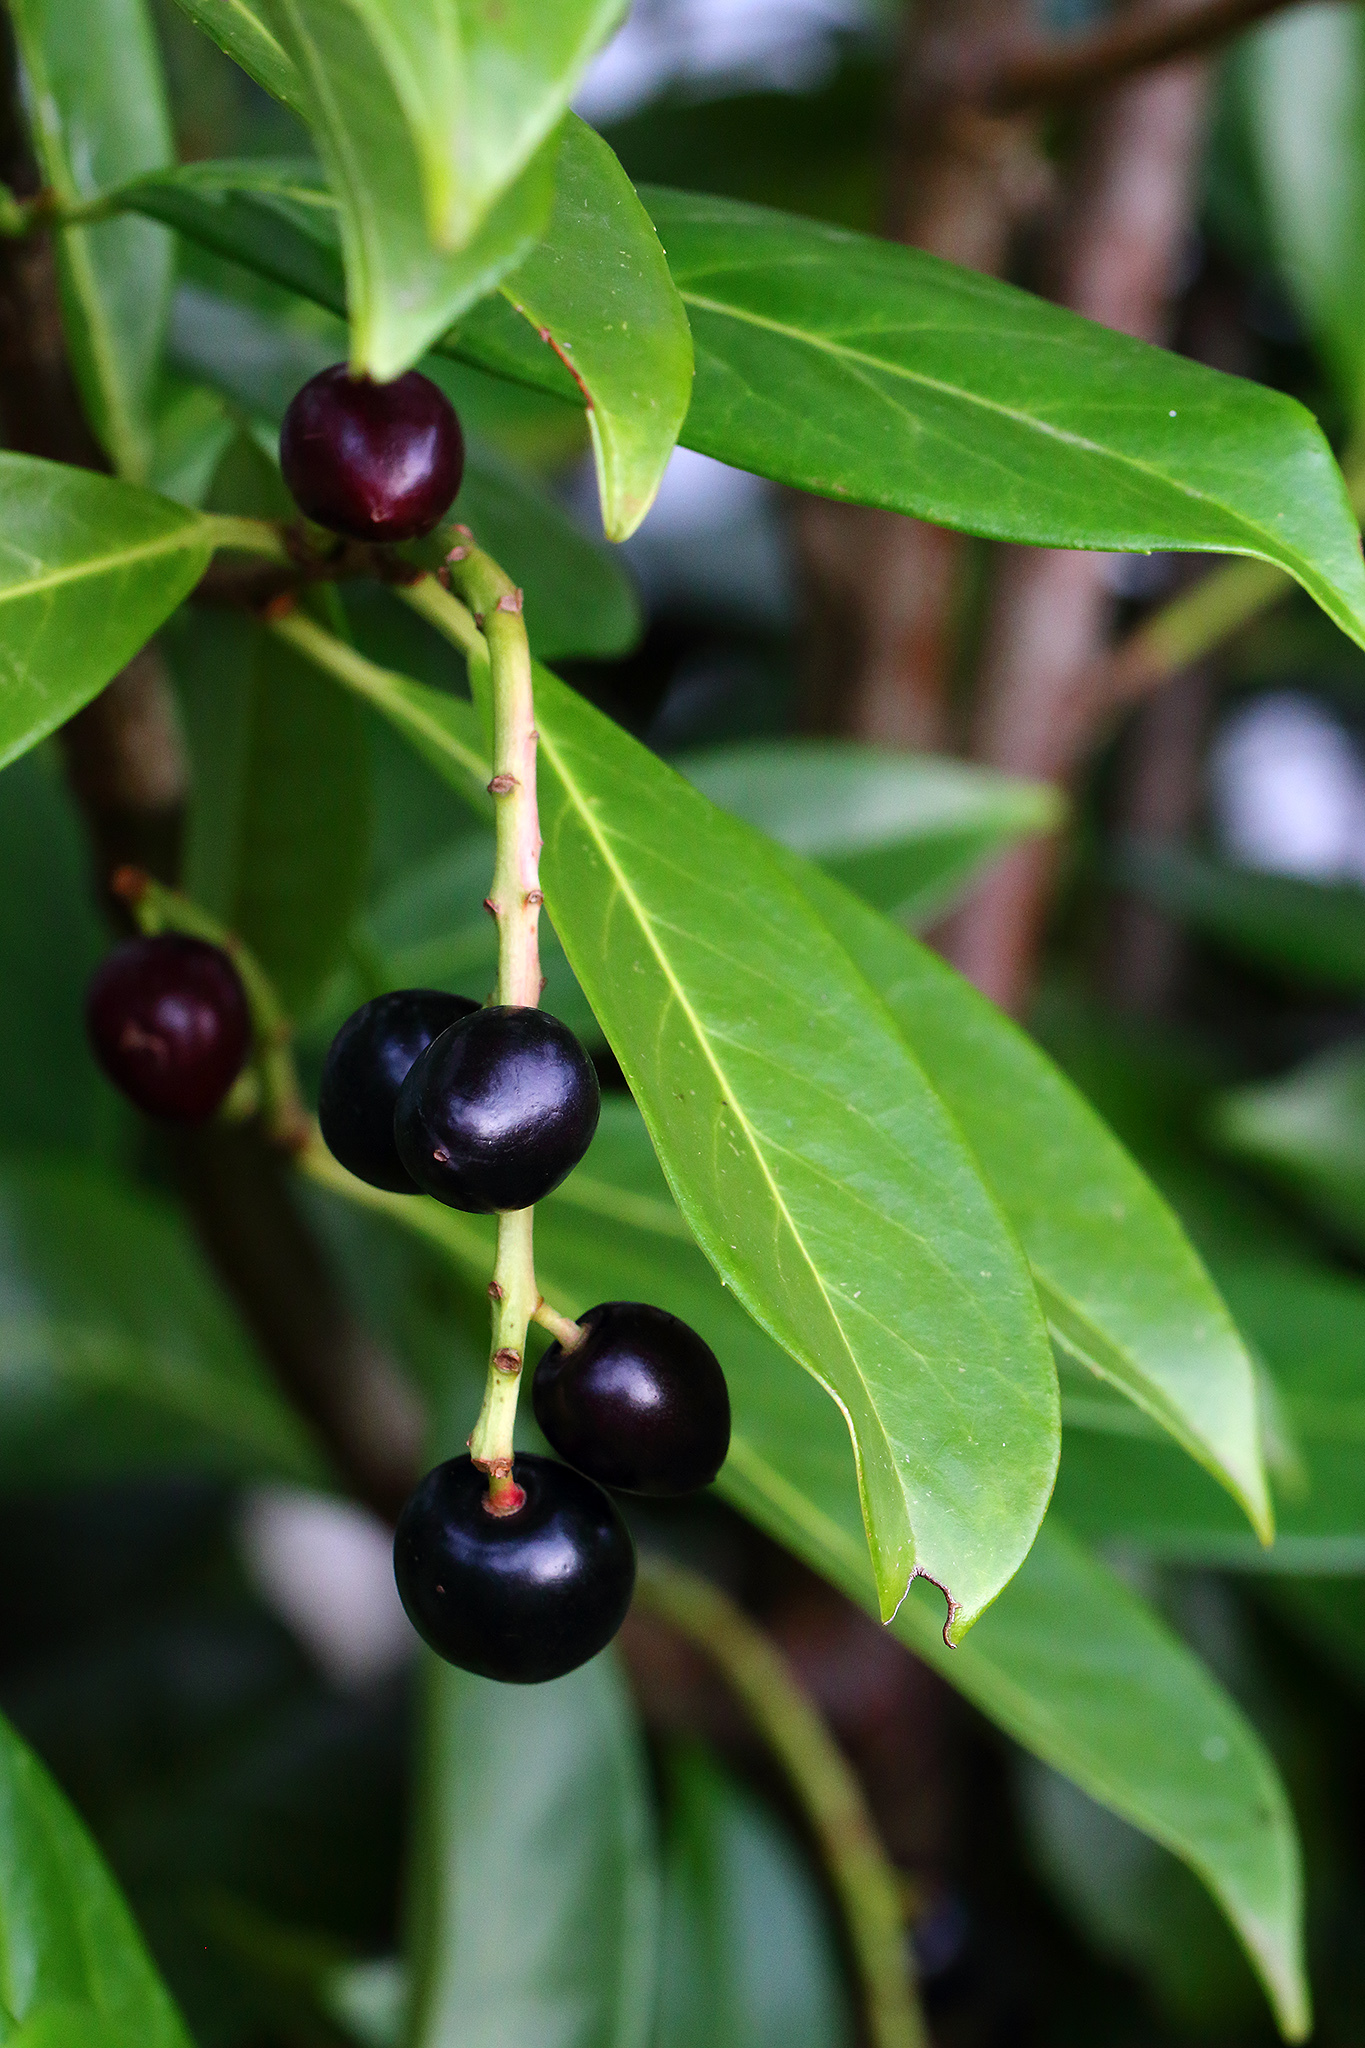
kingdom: Plantae
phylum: Tracheophyta
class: Magnoliopsida
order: Rosales
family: Rosaceae
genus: Prunus
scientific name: Prunus laurocerasus
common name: Cherry laurel
